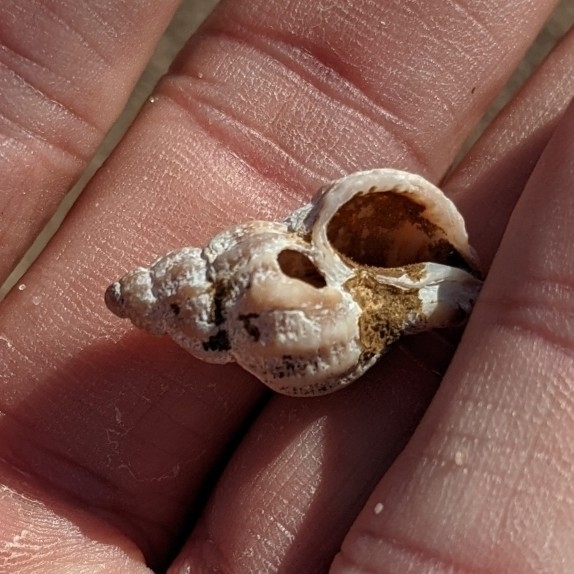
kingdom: Animalia
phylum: Mollusca
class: Gastropoda
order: Neogastropoda
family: Muricidae
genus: Urosalpinx
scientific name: Urosalpinx cinerea
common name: American sting winkle
